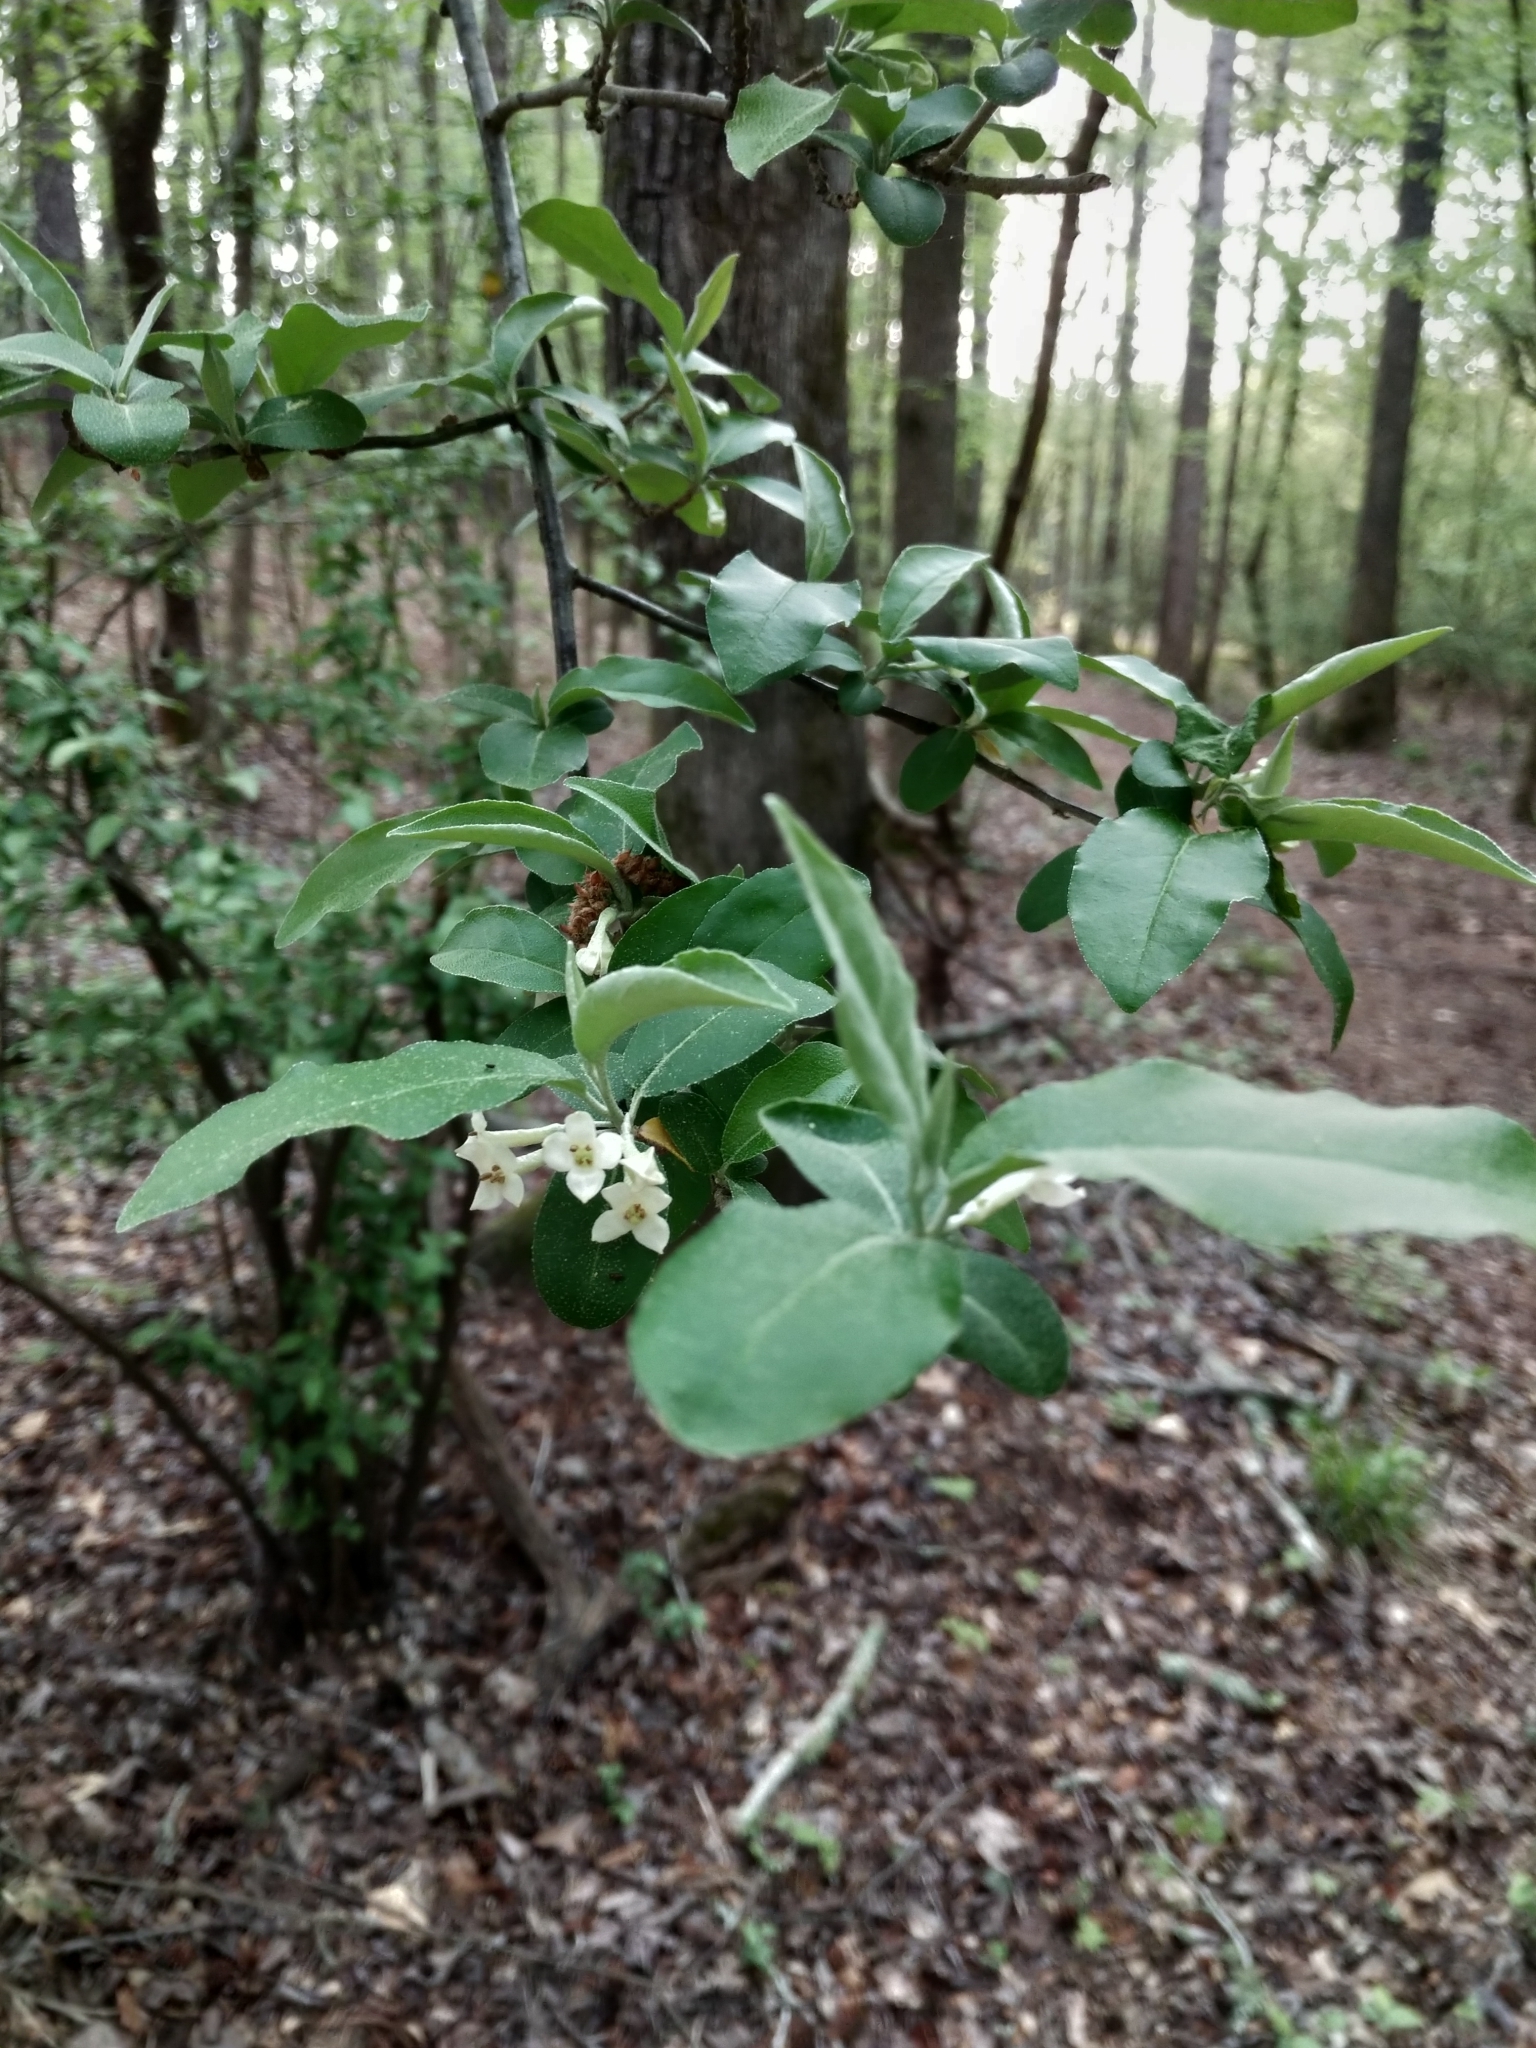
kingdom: Plantae
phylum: Tracheophyta
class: Magnoliopsida
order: Rosales
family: Elaeagnaceae
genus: Elaeagnus
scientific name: Elaeagnus umbellata
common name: Autumn olive
